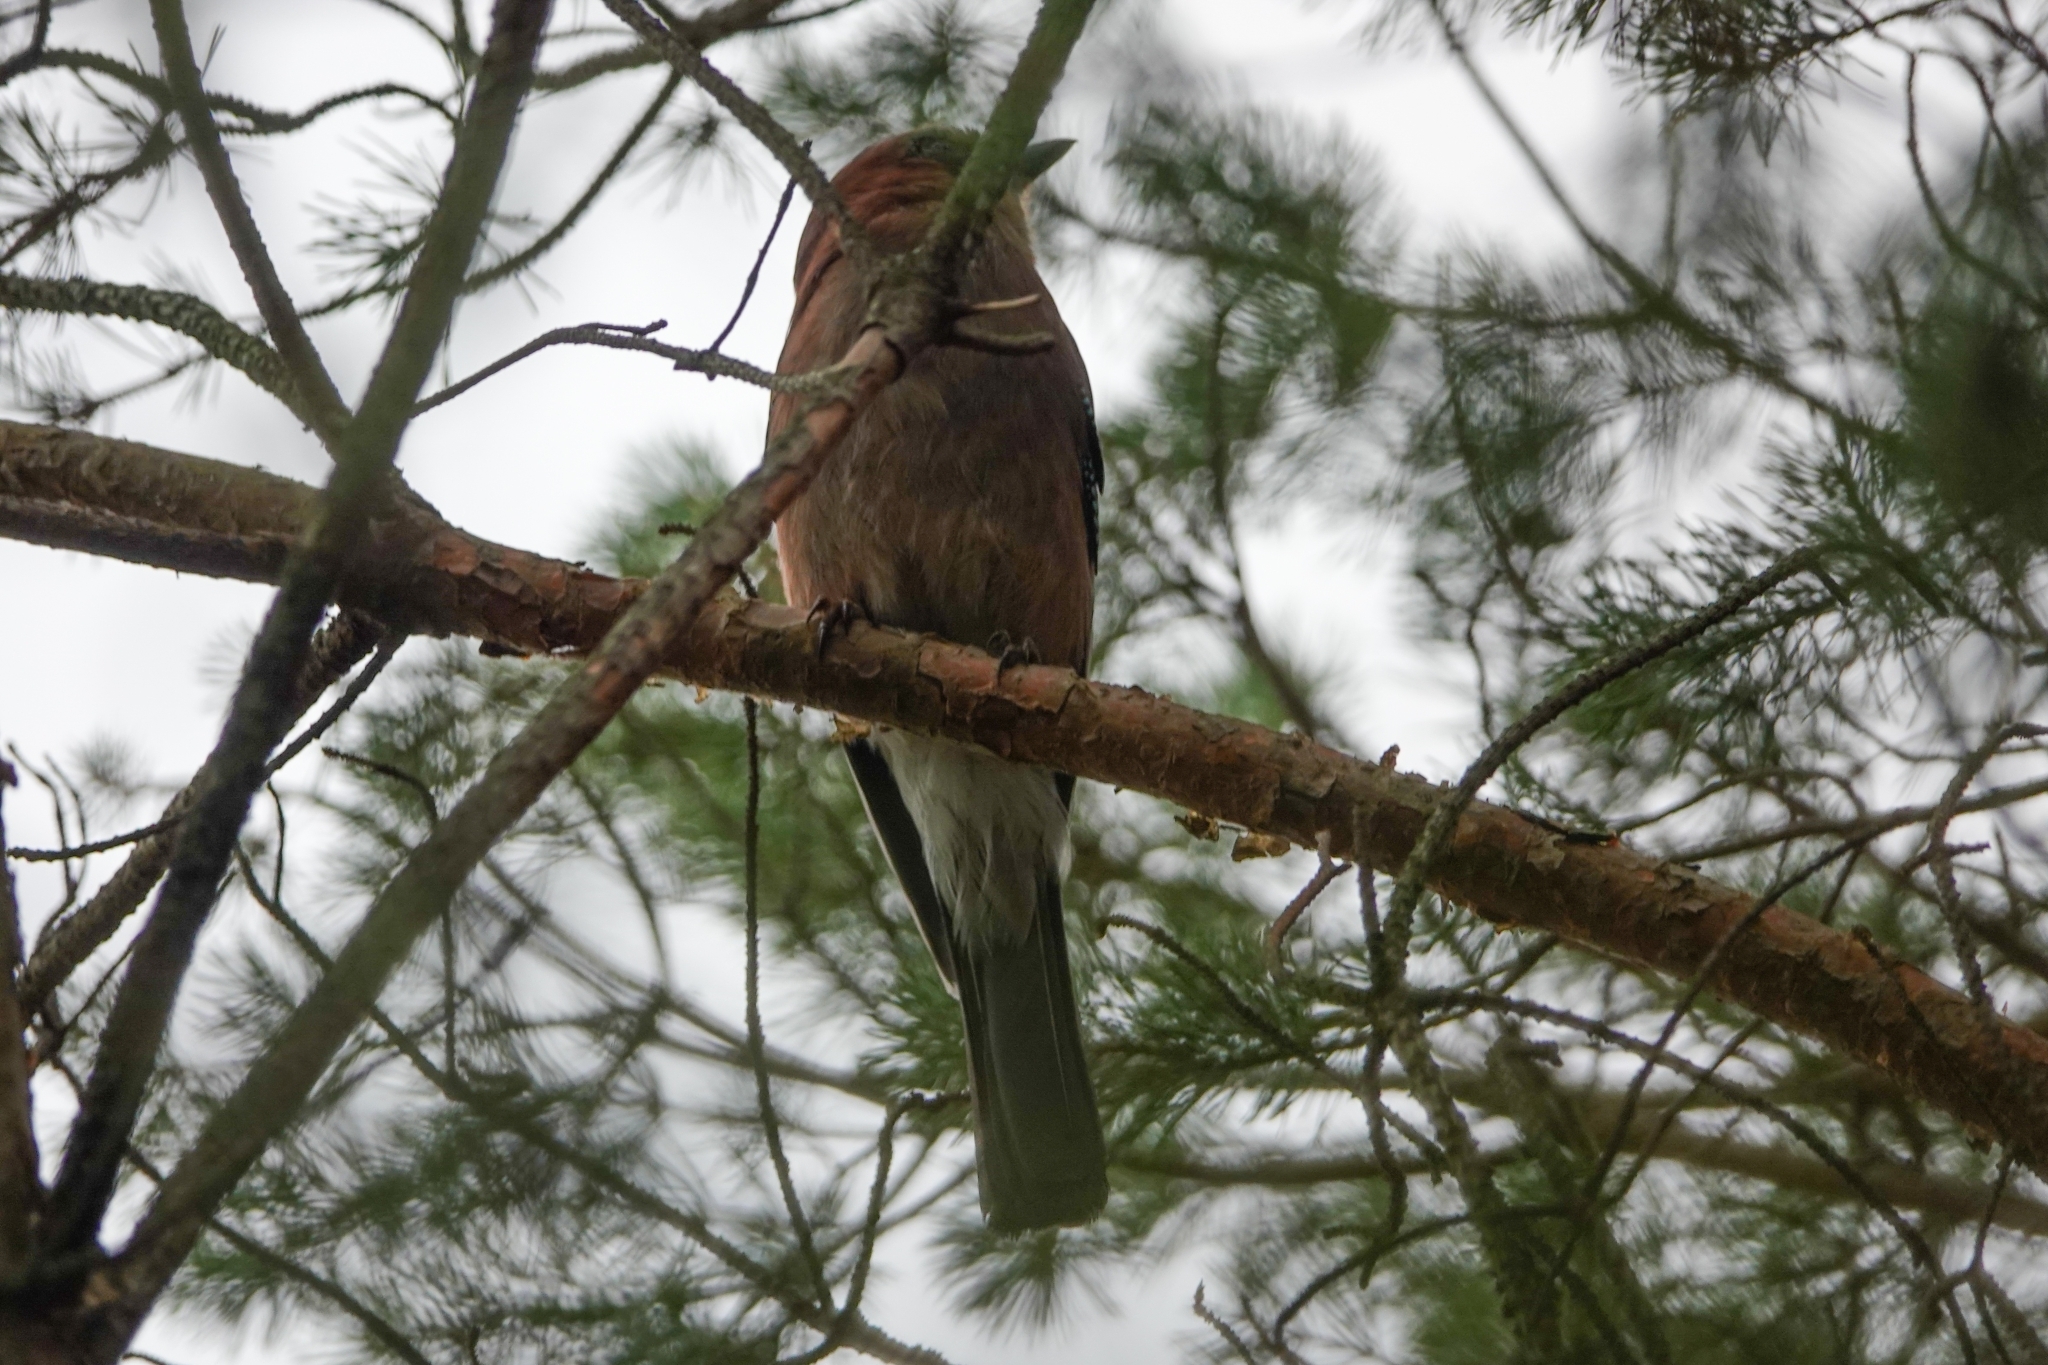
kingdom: Animalia
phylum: Chordata
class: Aves
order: Passeriformes
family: Corvidae
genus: Garrulus
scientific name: Garrulus glandarius
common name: Eurasian jay
